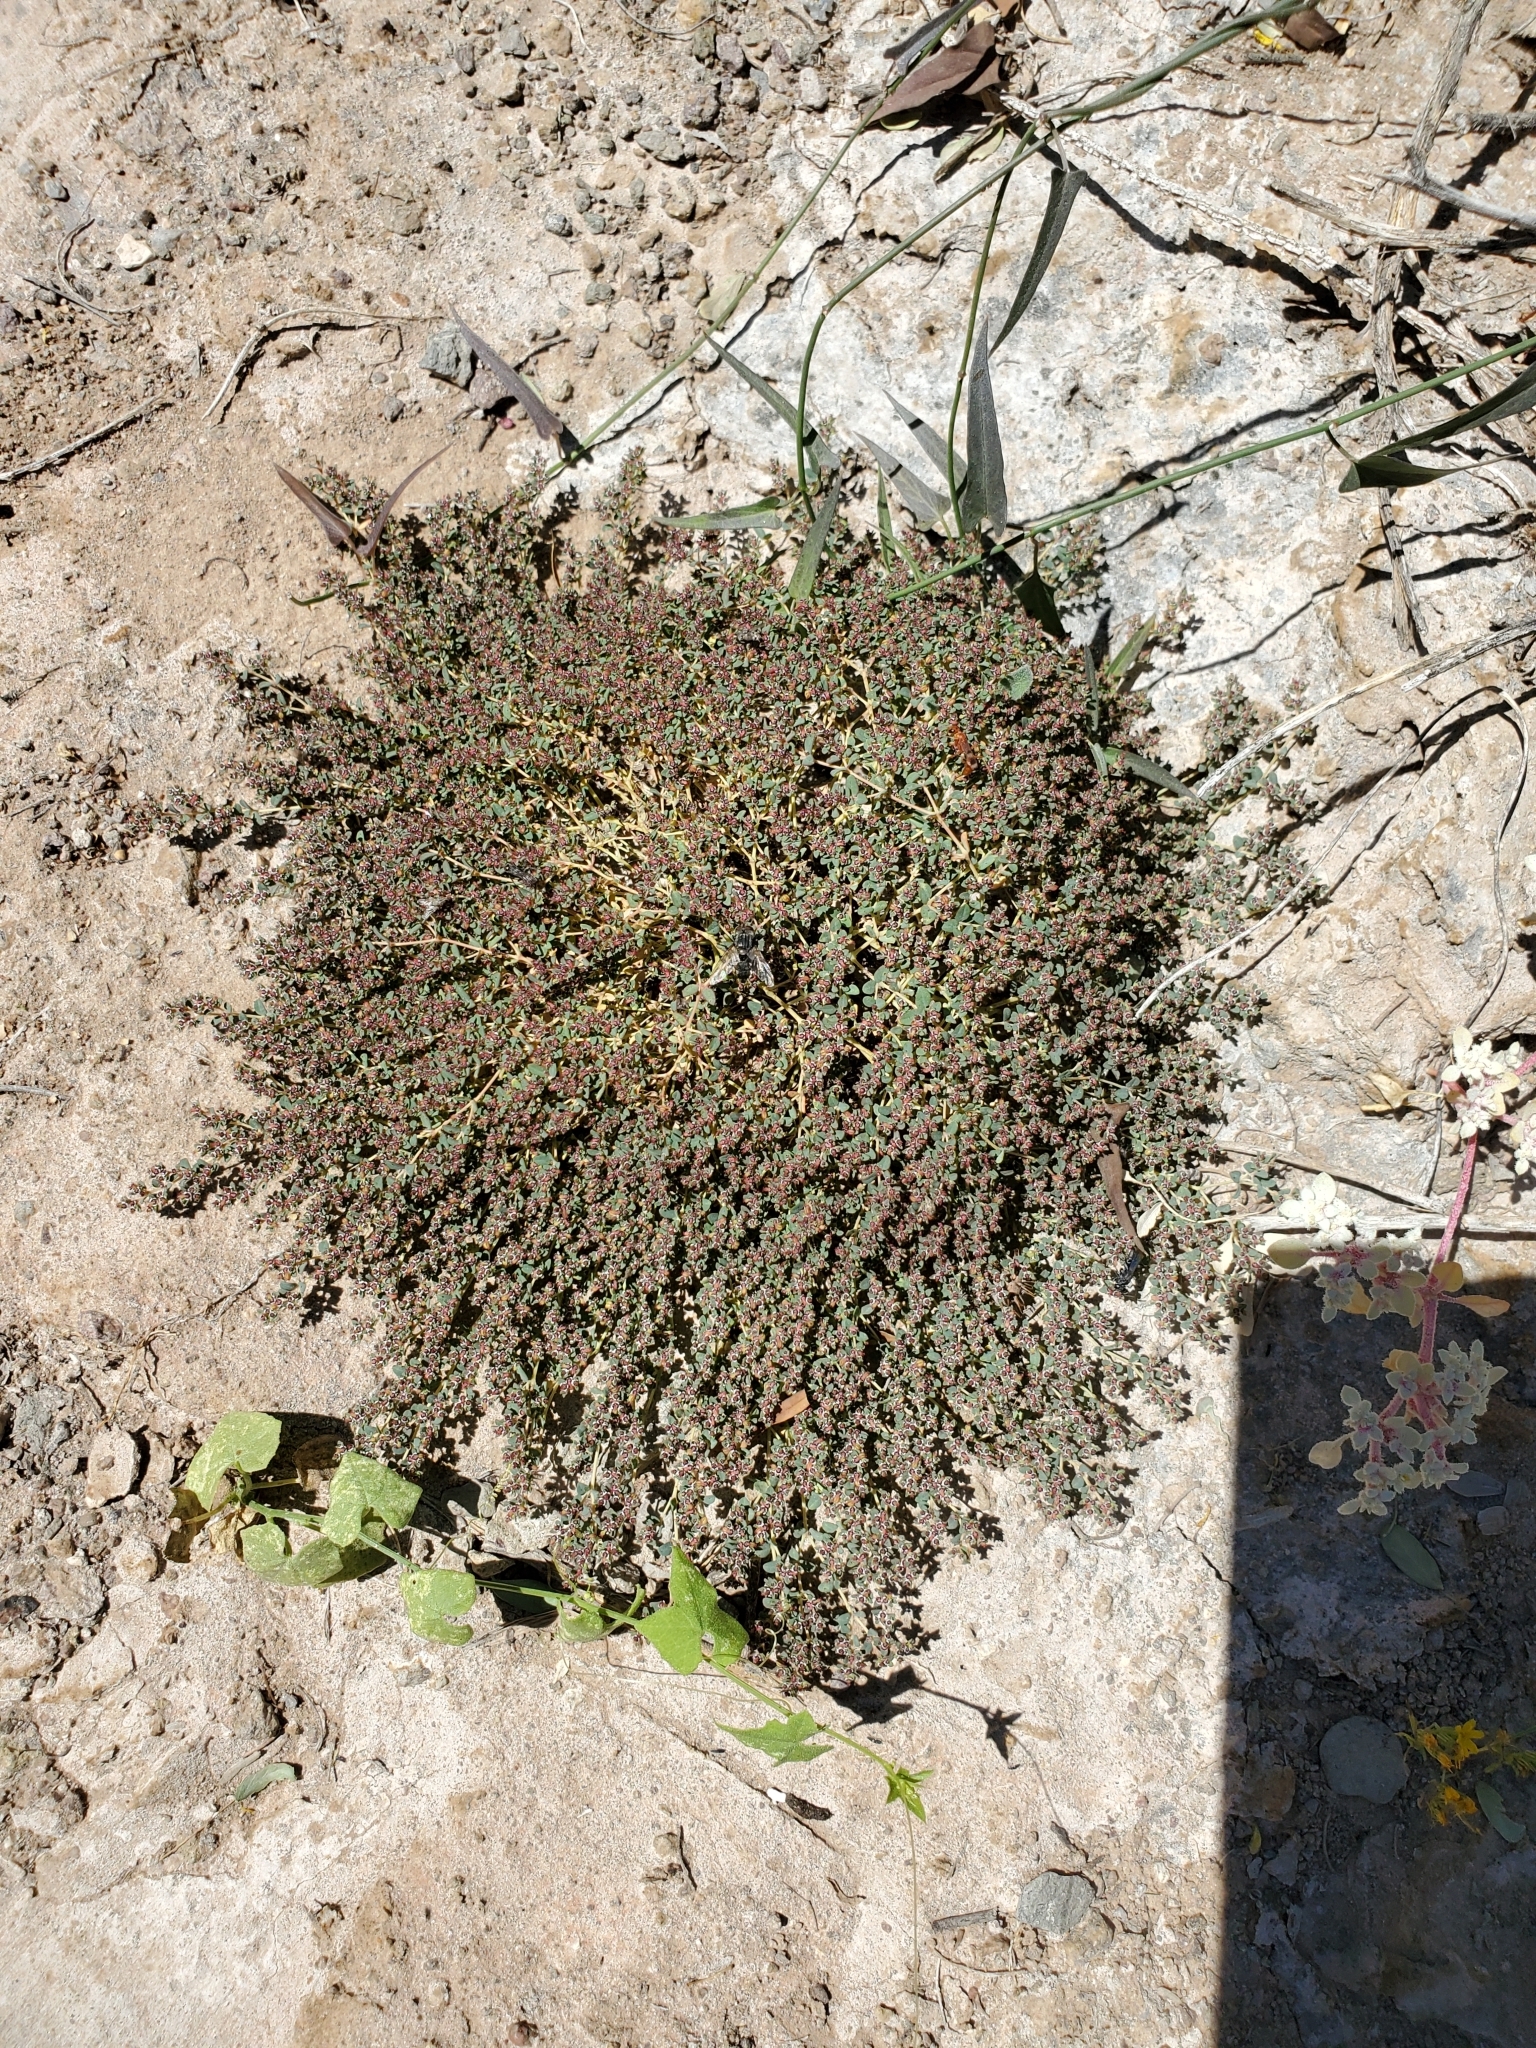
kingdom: Plantae
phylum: Tracheophyta
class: Magnoliopsida
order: Malpighiales
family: Euphorbiaceae
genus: Euphorbia
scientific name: Euphorbia polycarpa
